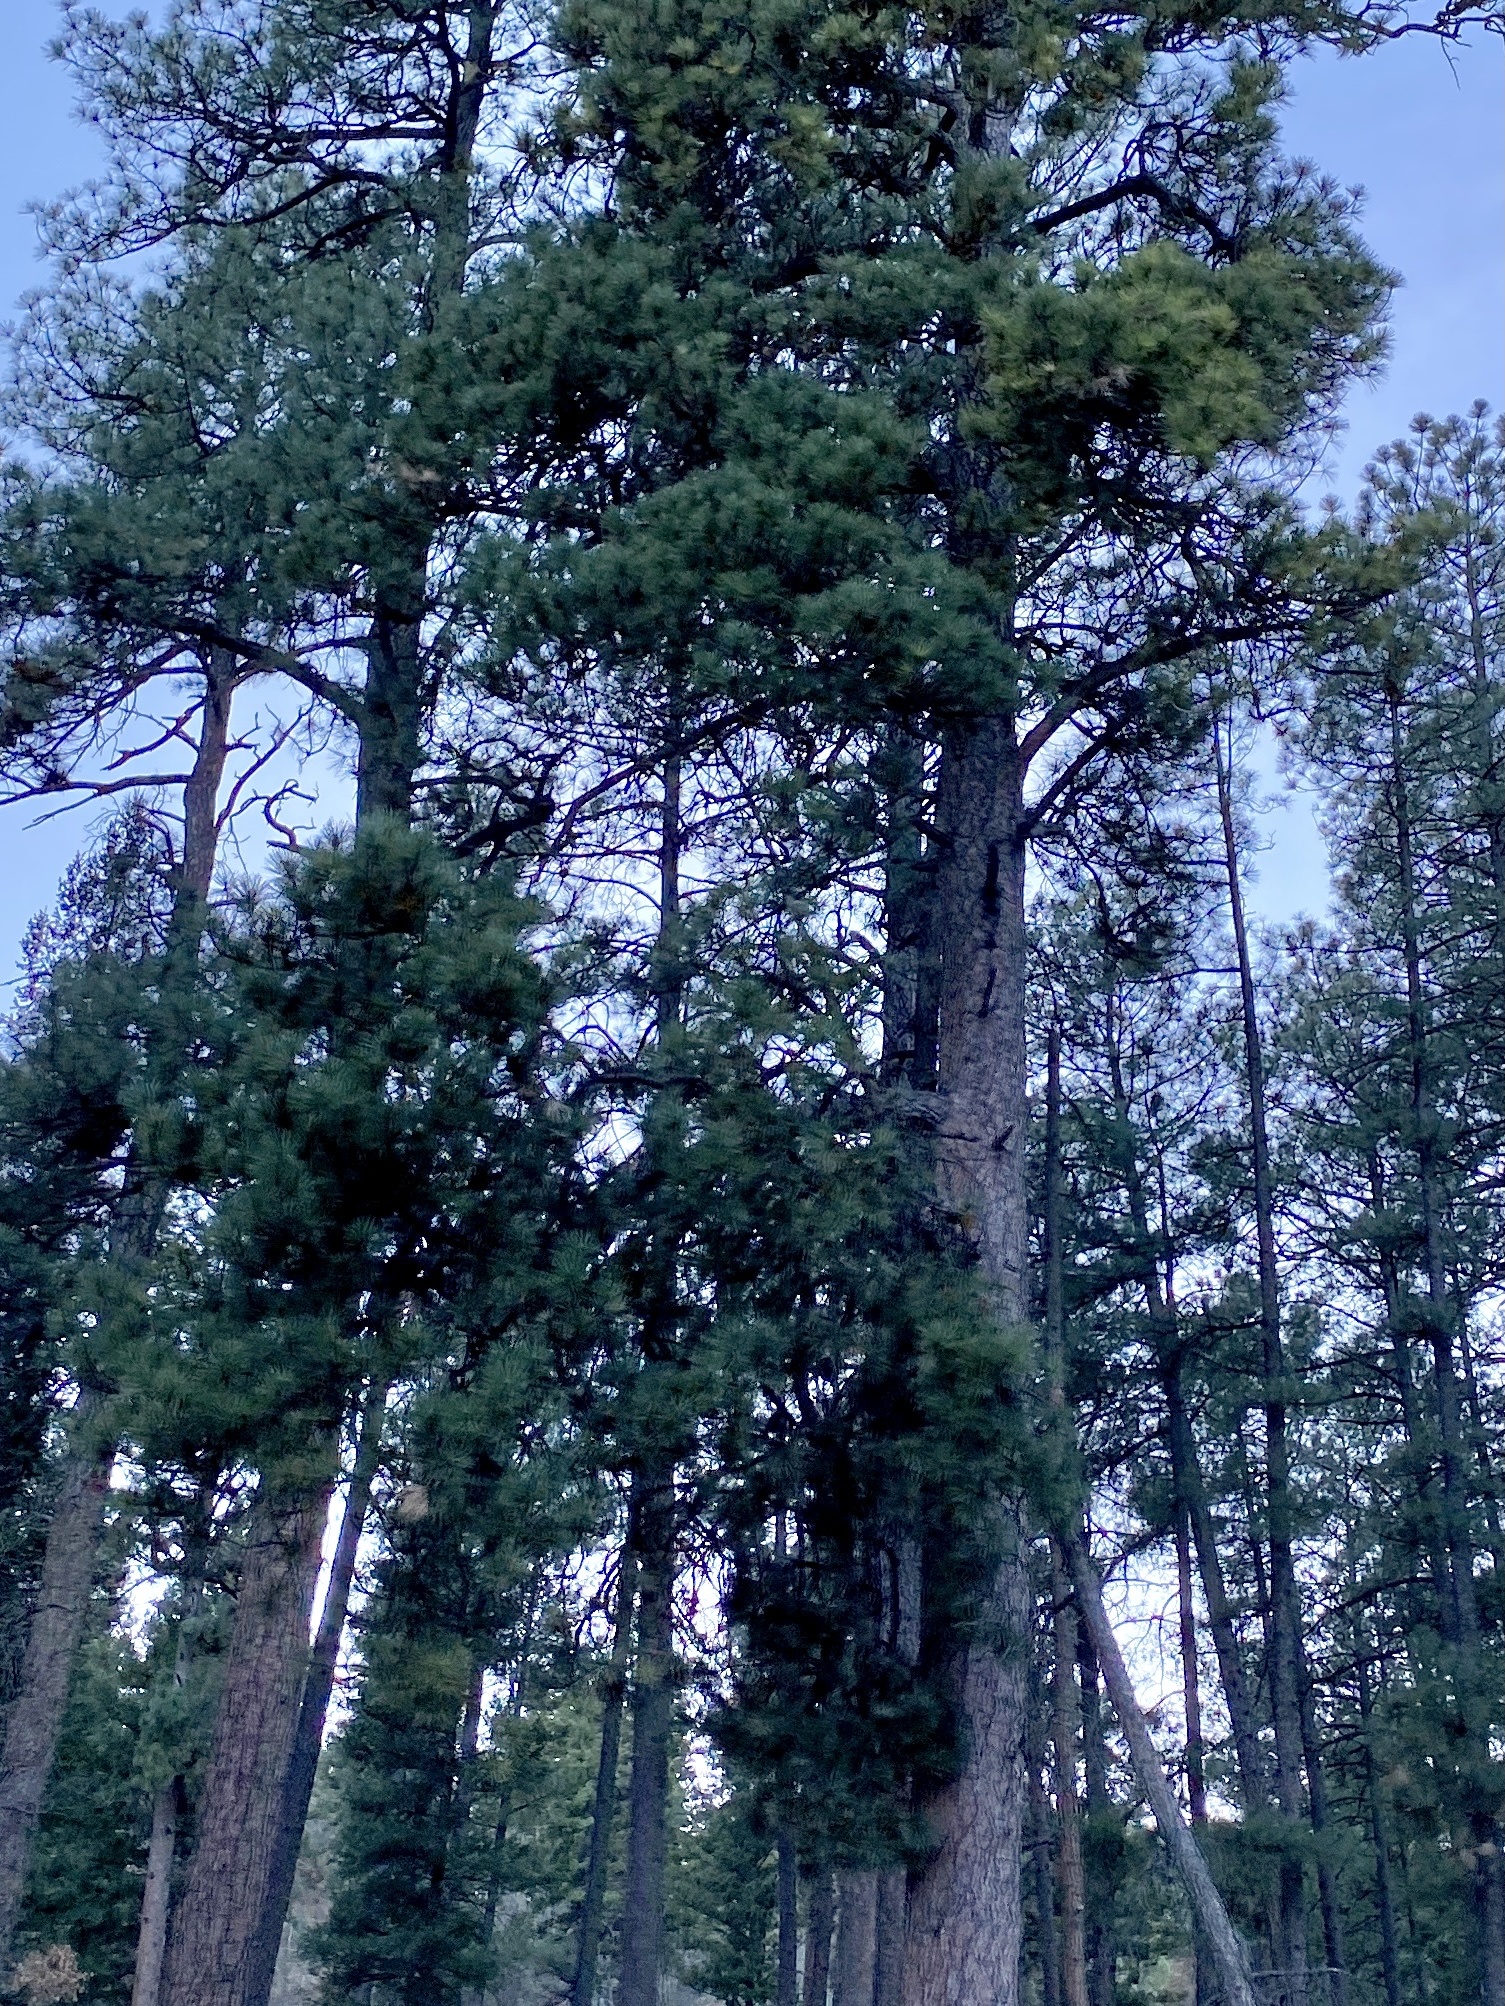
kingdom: Plantae
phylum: Tracheophyta
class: Pinopsida
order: Pinales
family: Pinaceae
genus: Pinus
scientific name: Pinus ponderosa
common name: Western yellow-pine
